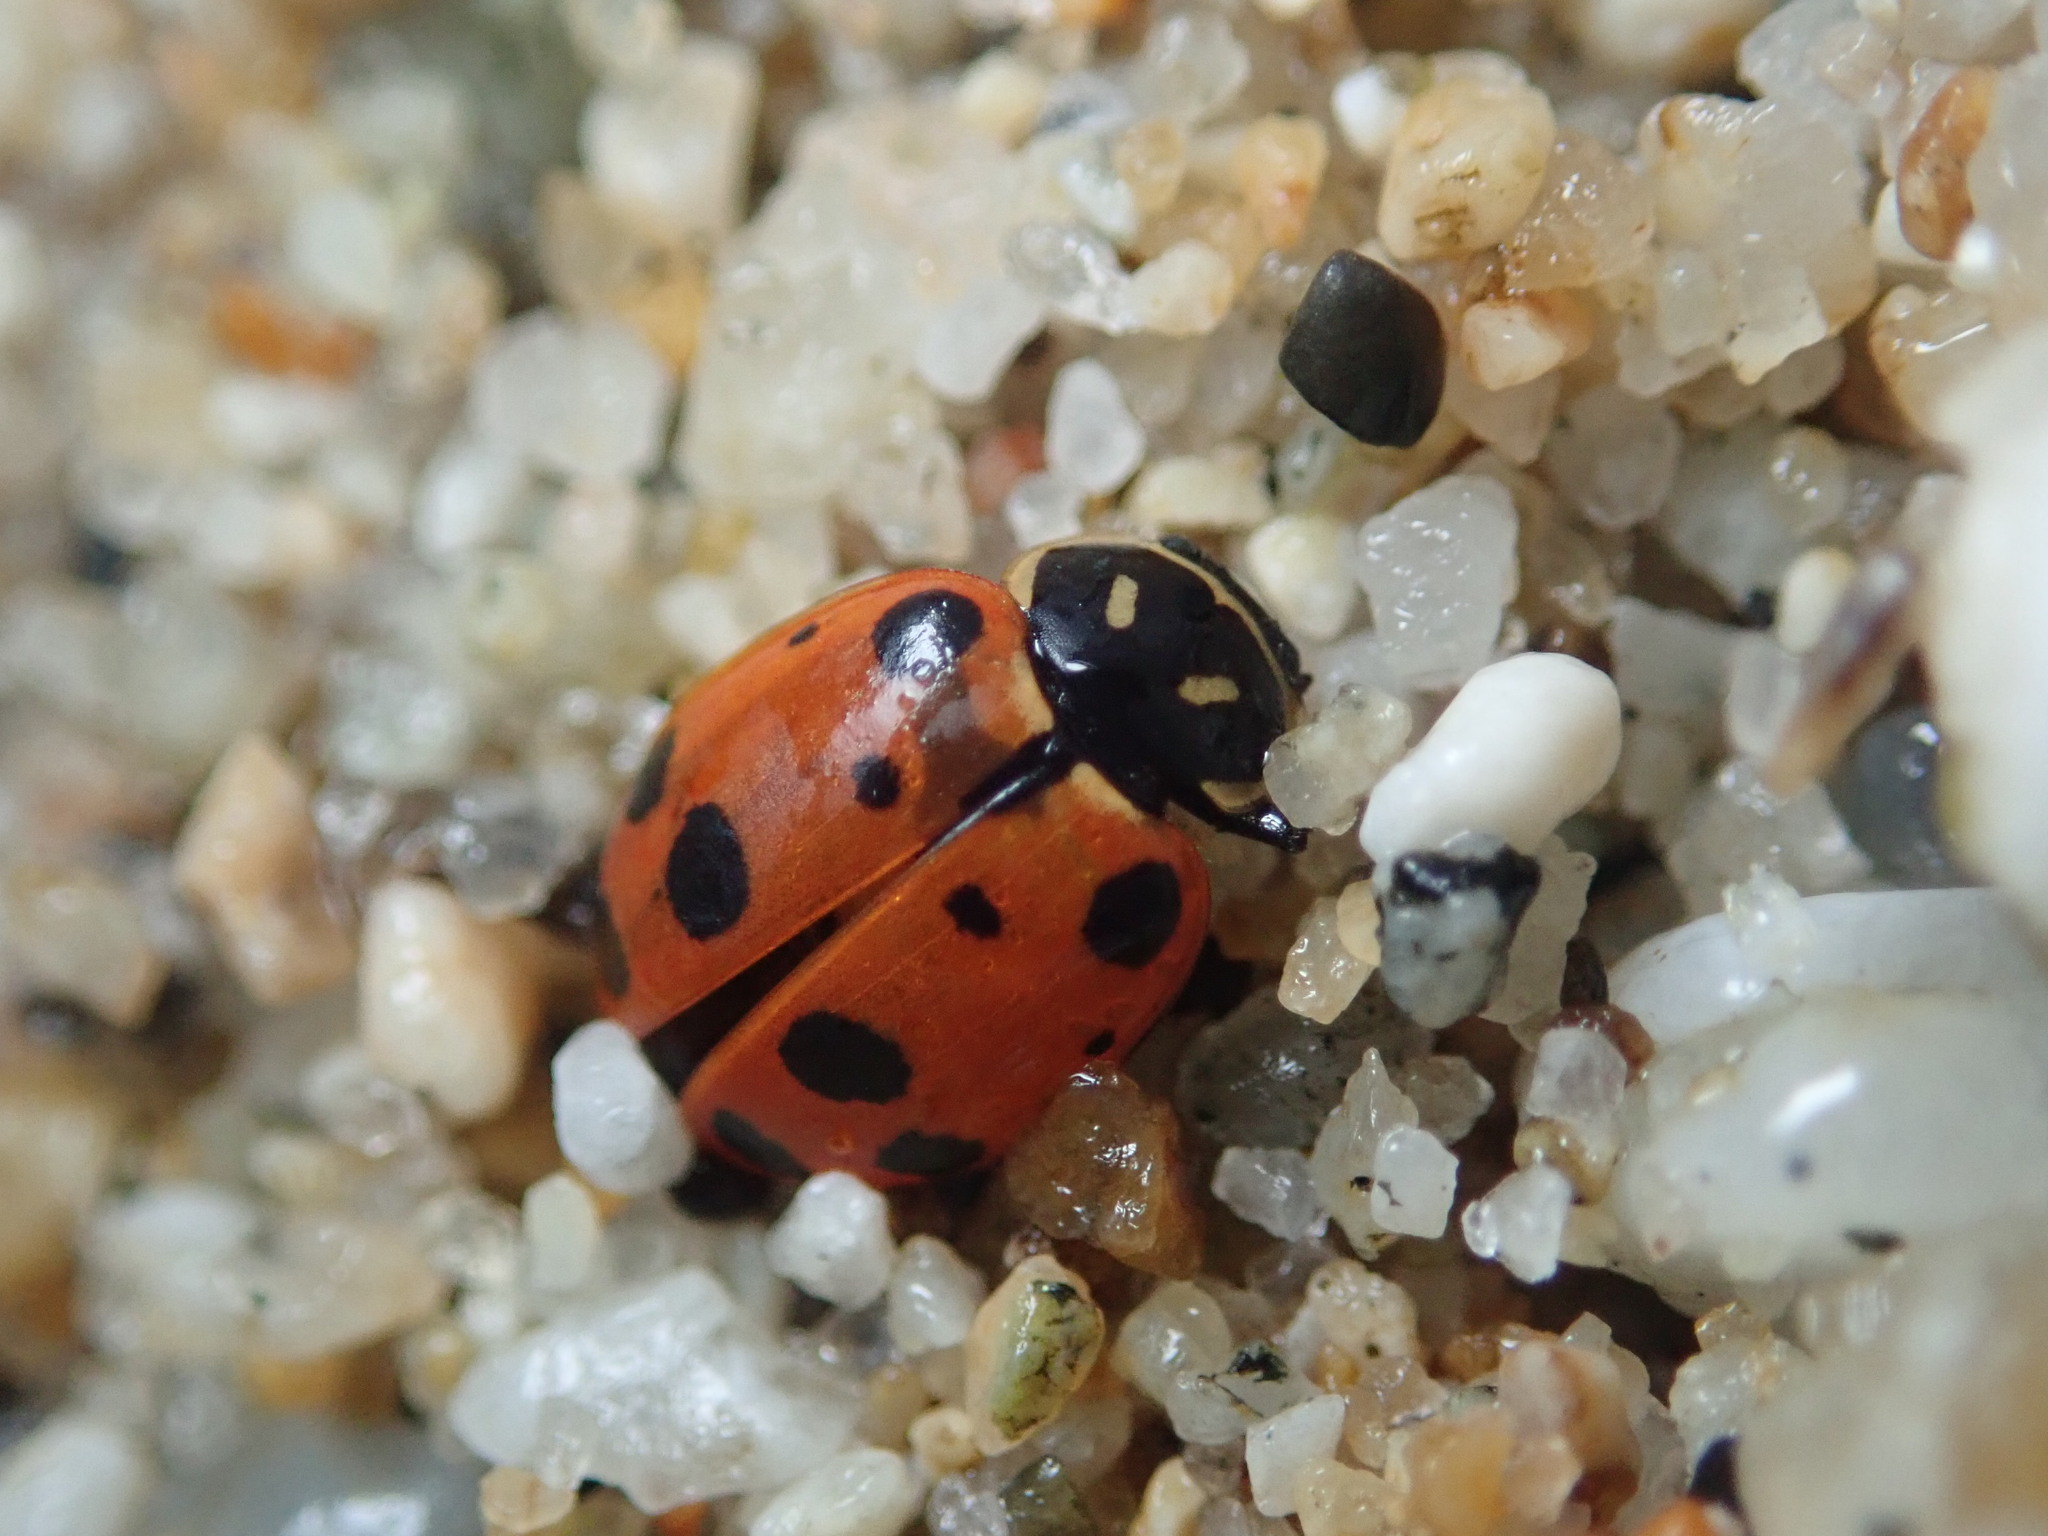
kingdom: Animalia
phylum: Arthropoda
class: Insecta
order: Coleoptera
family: Coccinellidae
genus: Hippodamia
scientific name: Hippodamia convergens
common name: Convergent lady beetle
